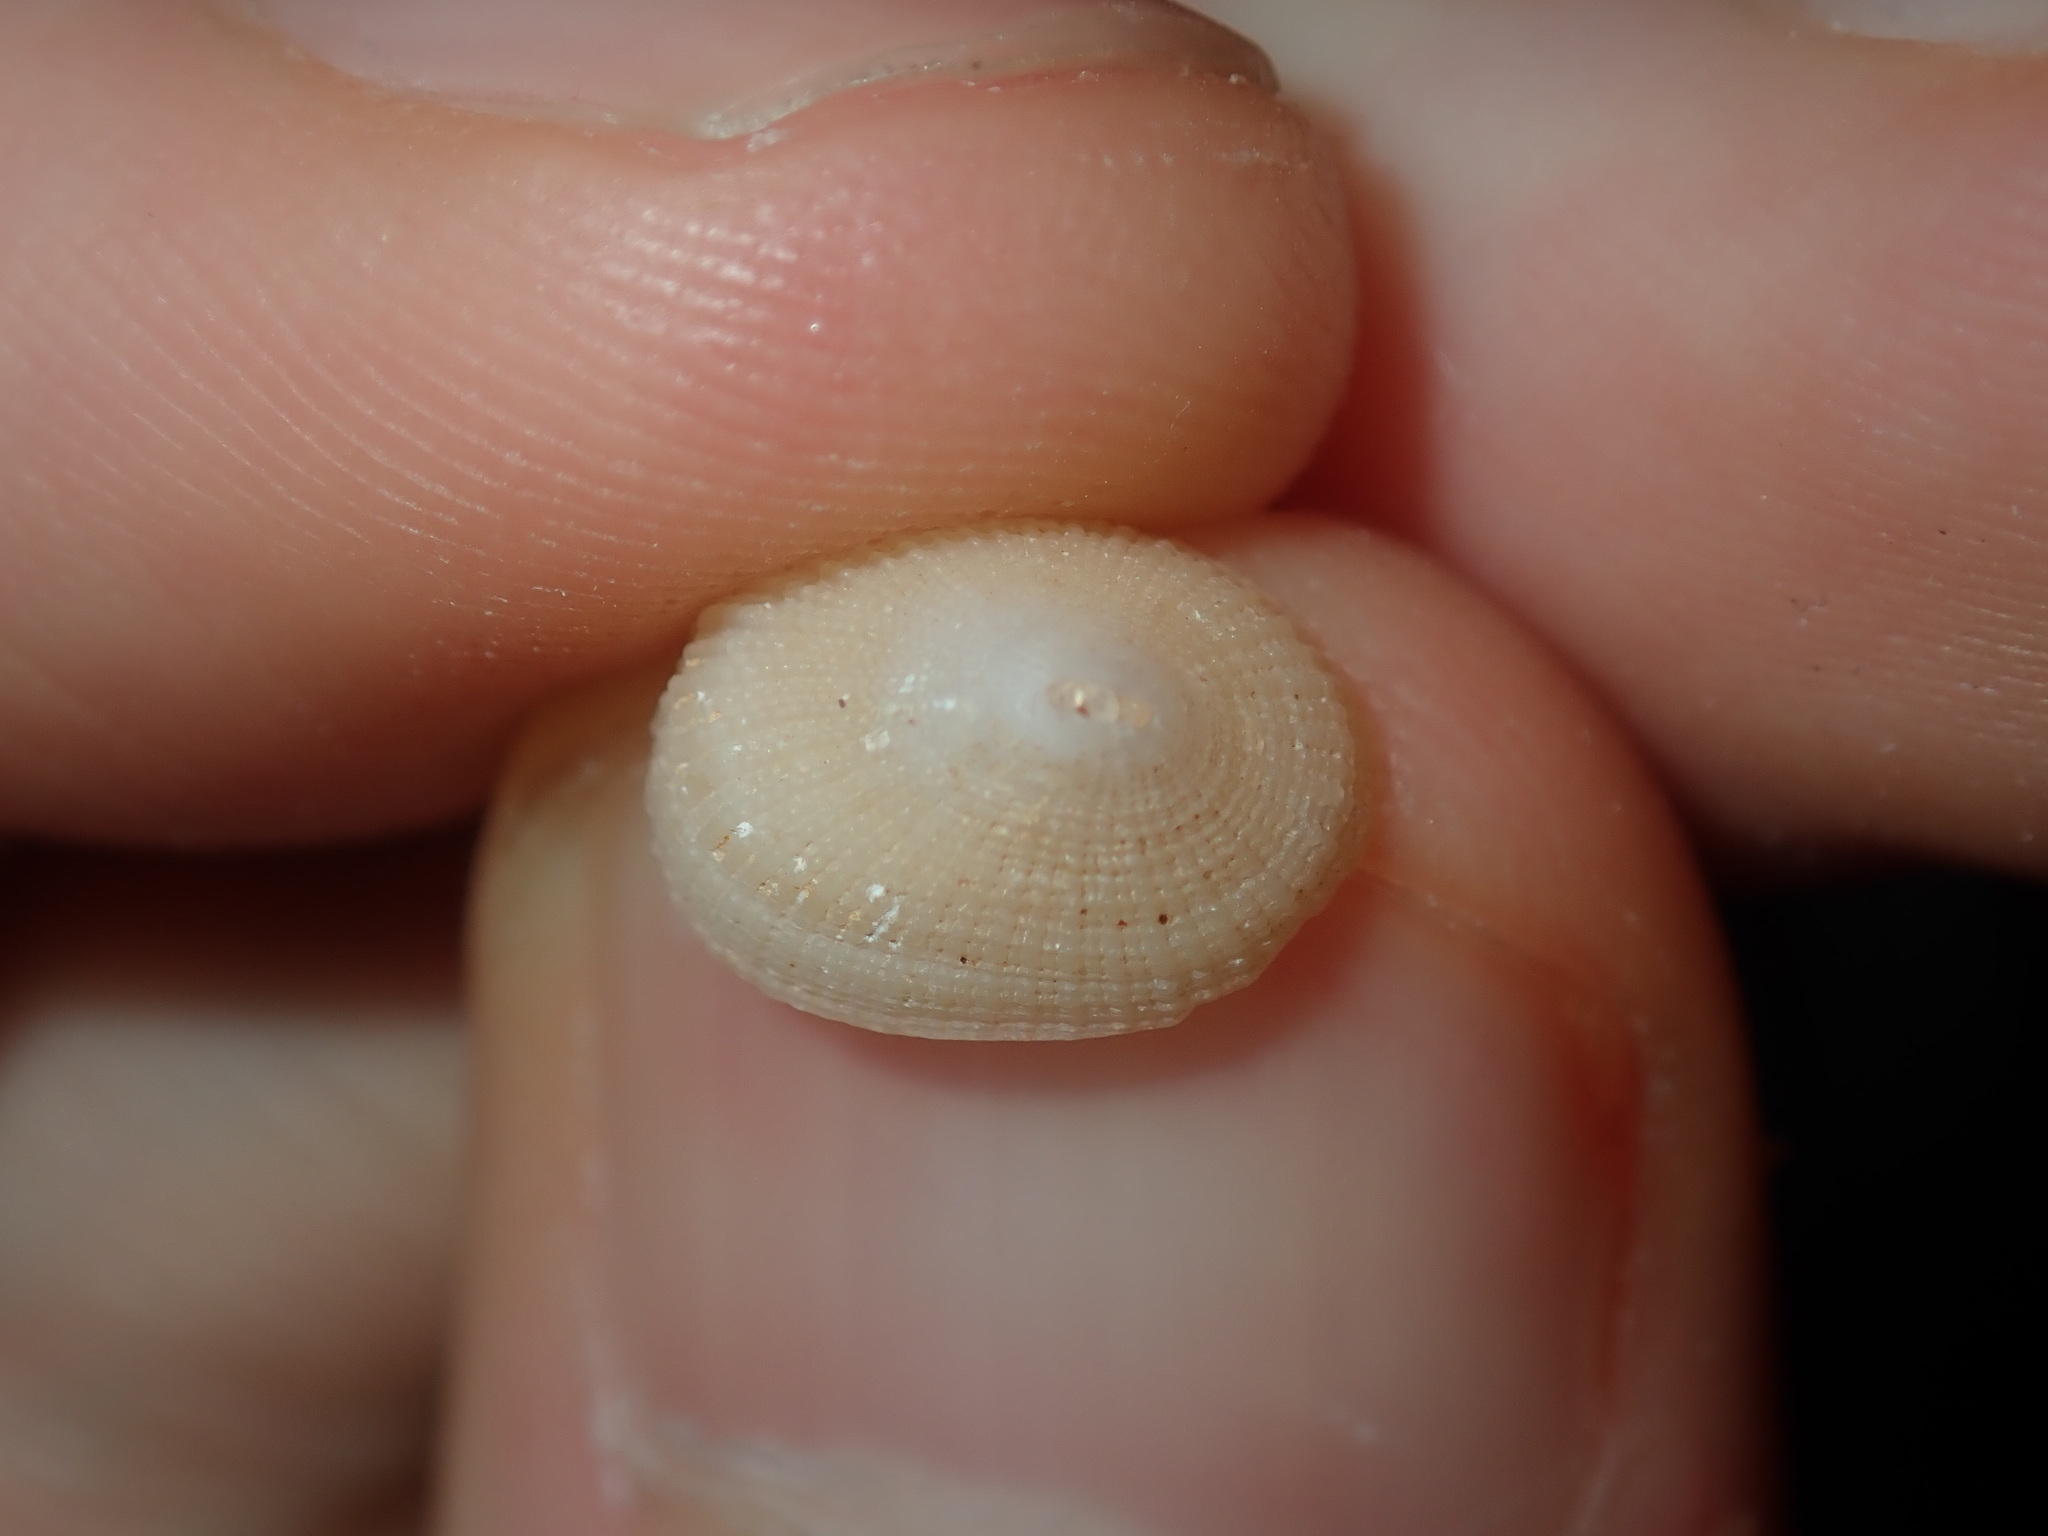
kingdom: Animalia
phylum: Mollusca
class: Gastropoda
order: Lepetellida
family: Fissurellidae
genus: Diodora
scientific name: Diodora ticaonica
